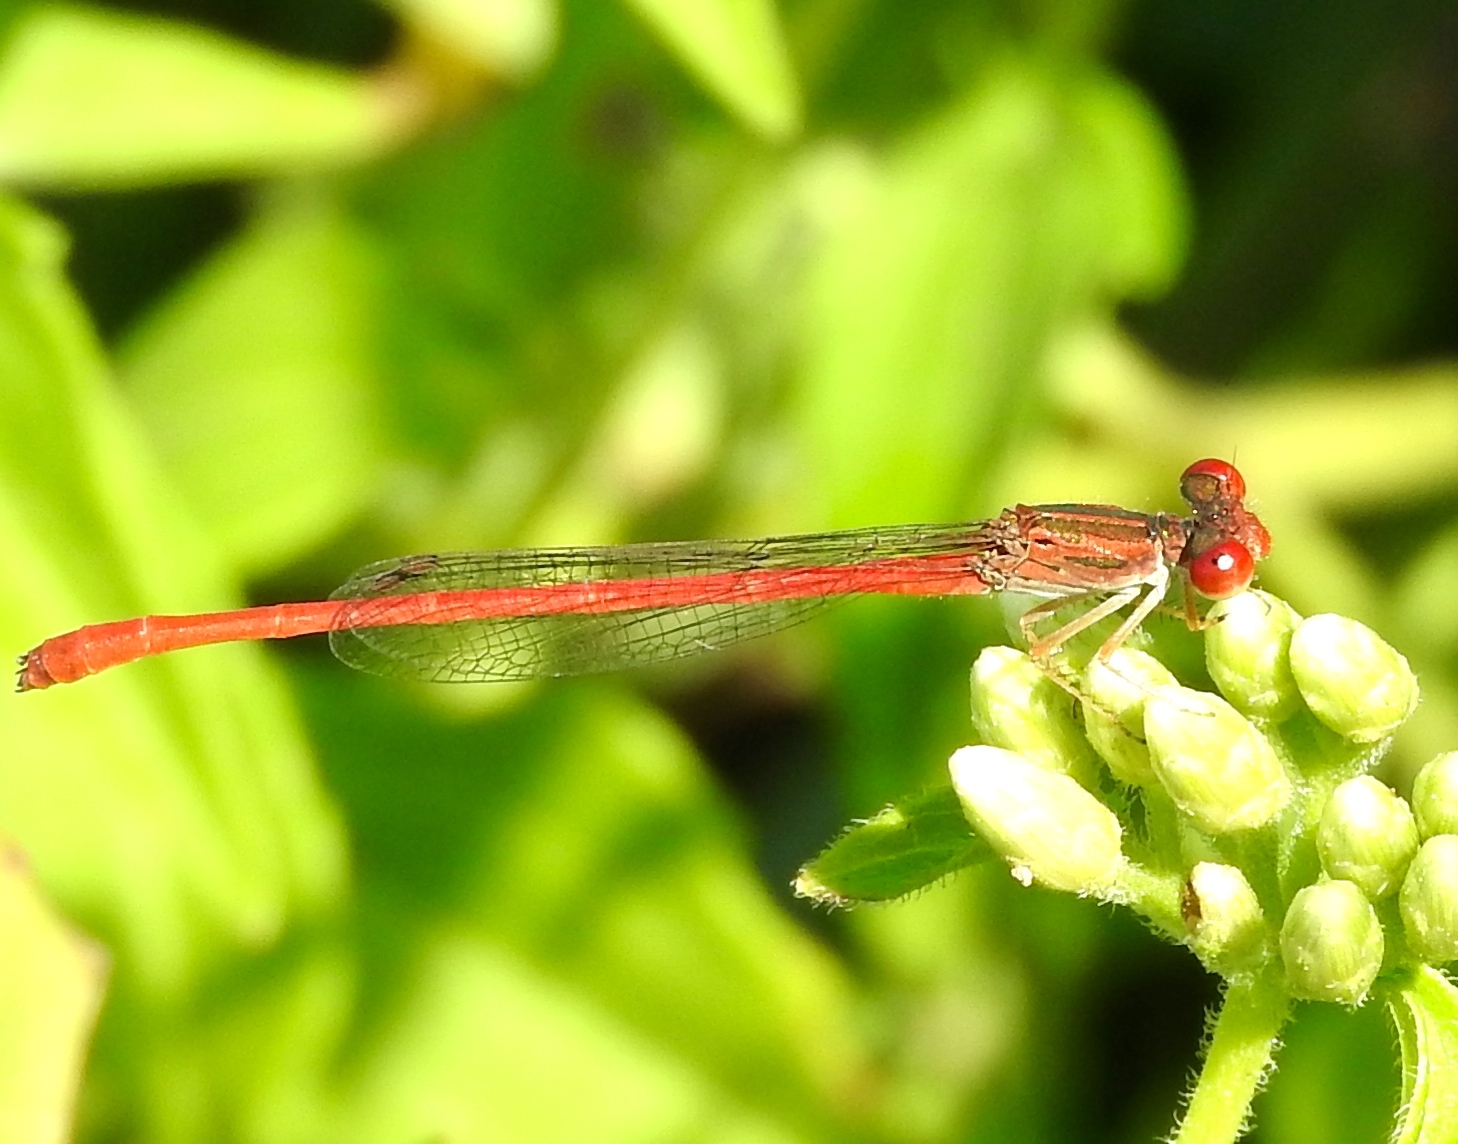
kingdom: Animalia
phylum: Arthropoda
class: Insecta
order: Odonata
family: Coenagrionidae
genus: Telebasis
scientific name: Telebasis salva
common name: Desert firetail
